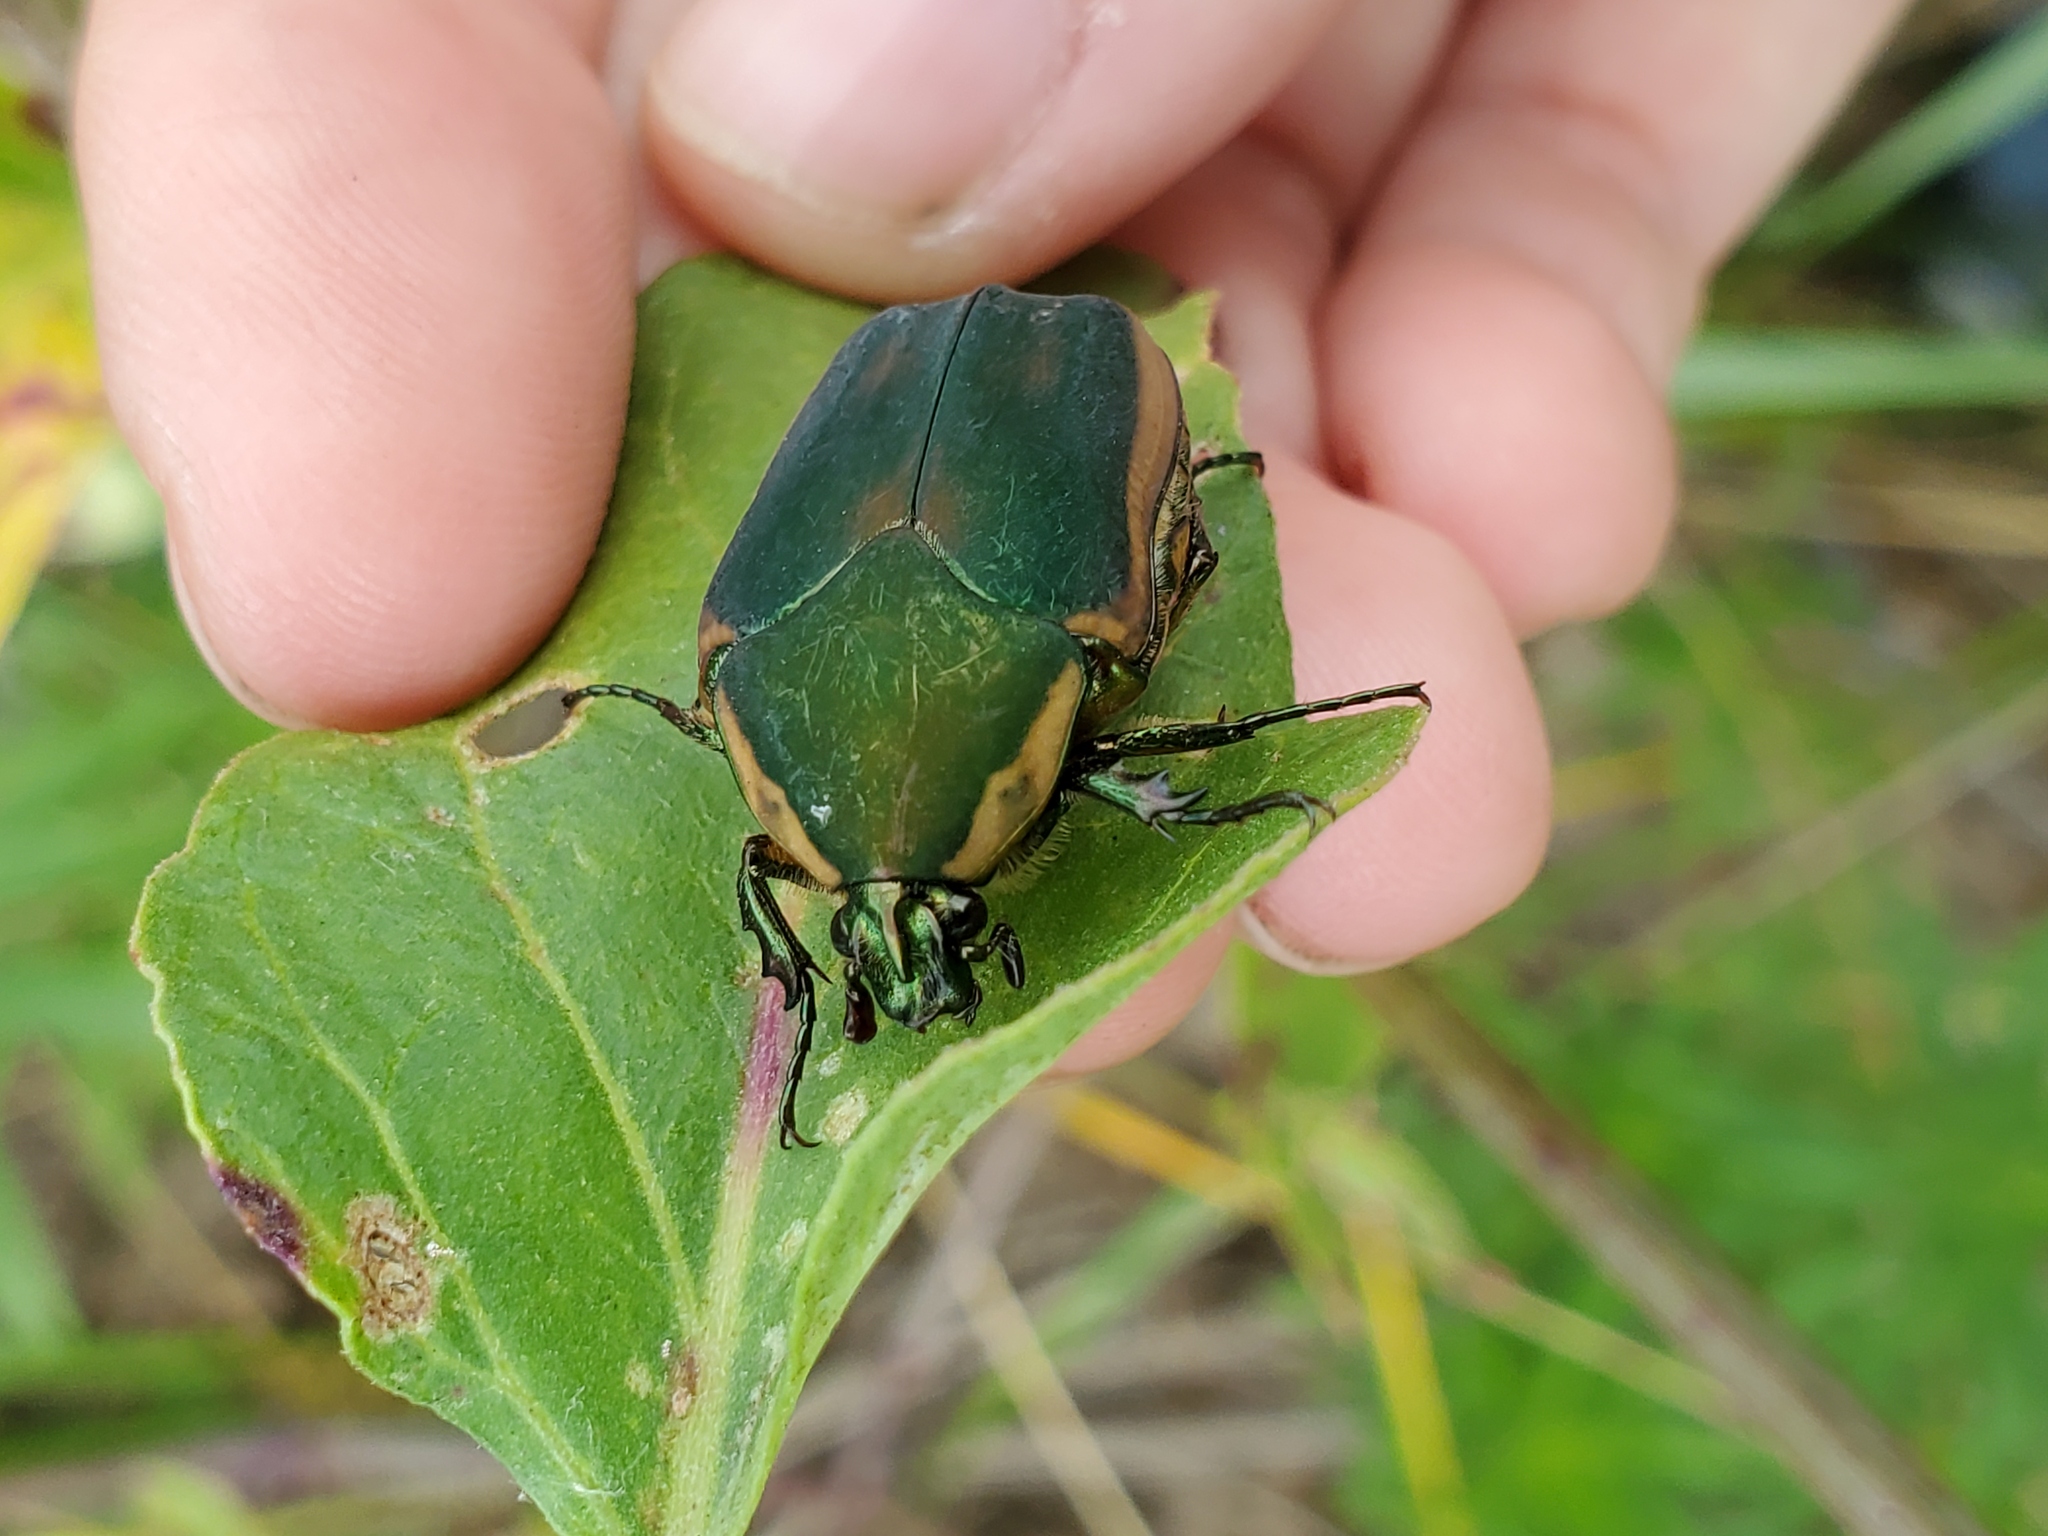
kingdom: Animalia
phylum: Arthropoda
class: Insecta
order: Coleoptera
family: Scarabaeidae
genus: Cotinis
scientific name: Cotinis nitida
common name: Common green june beetle
